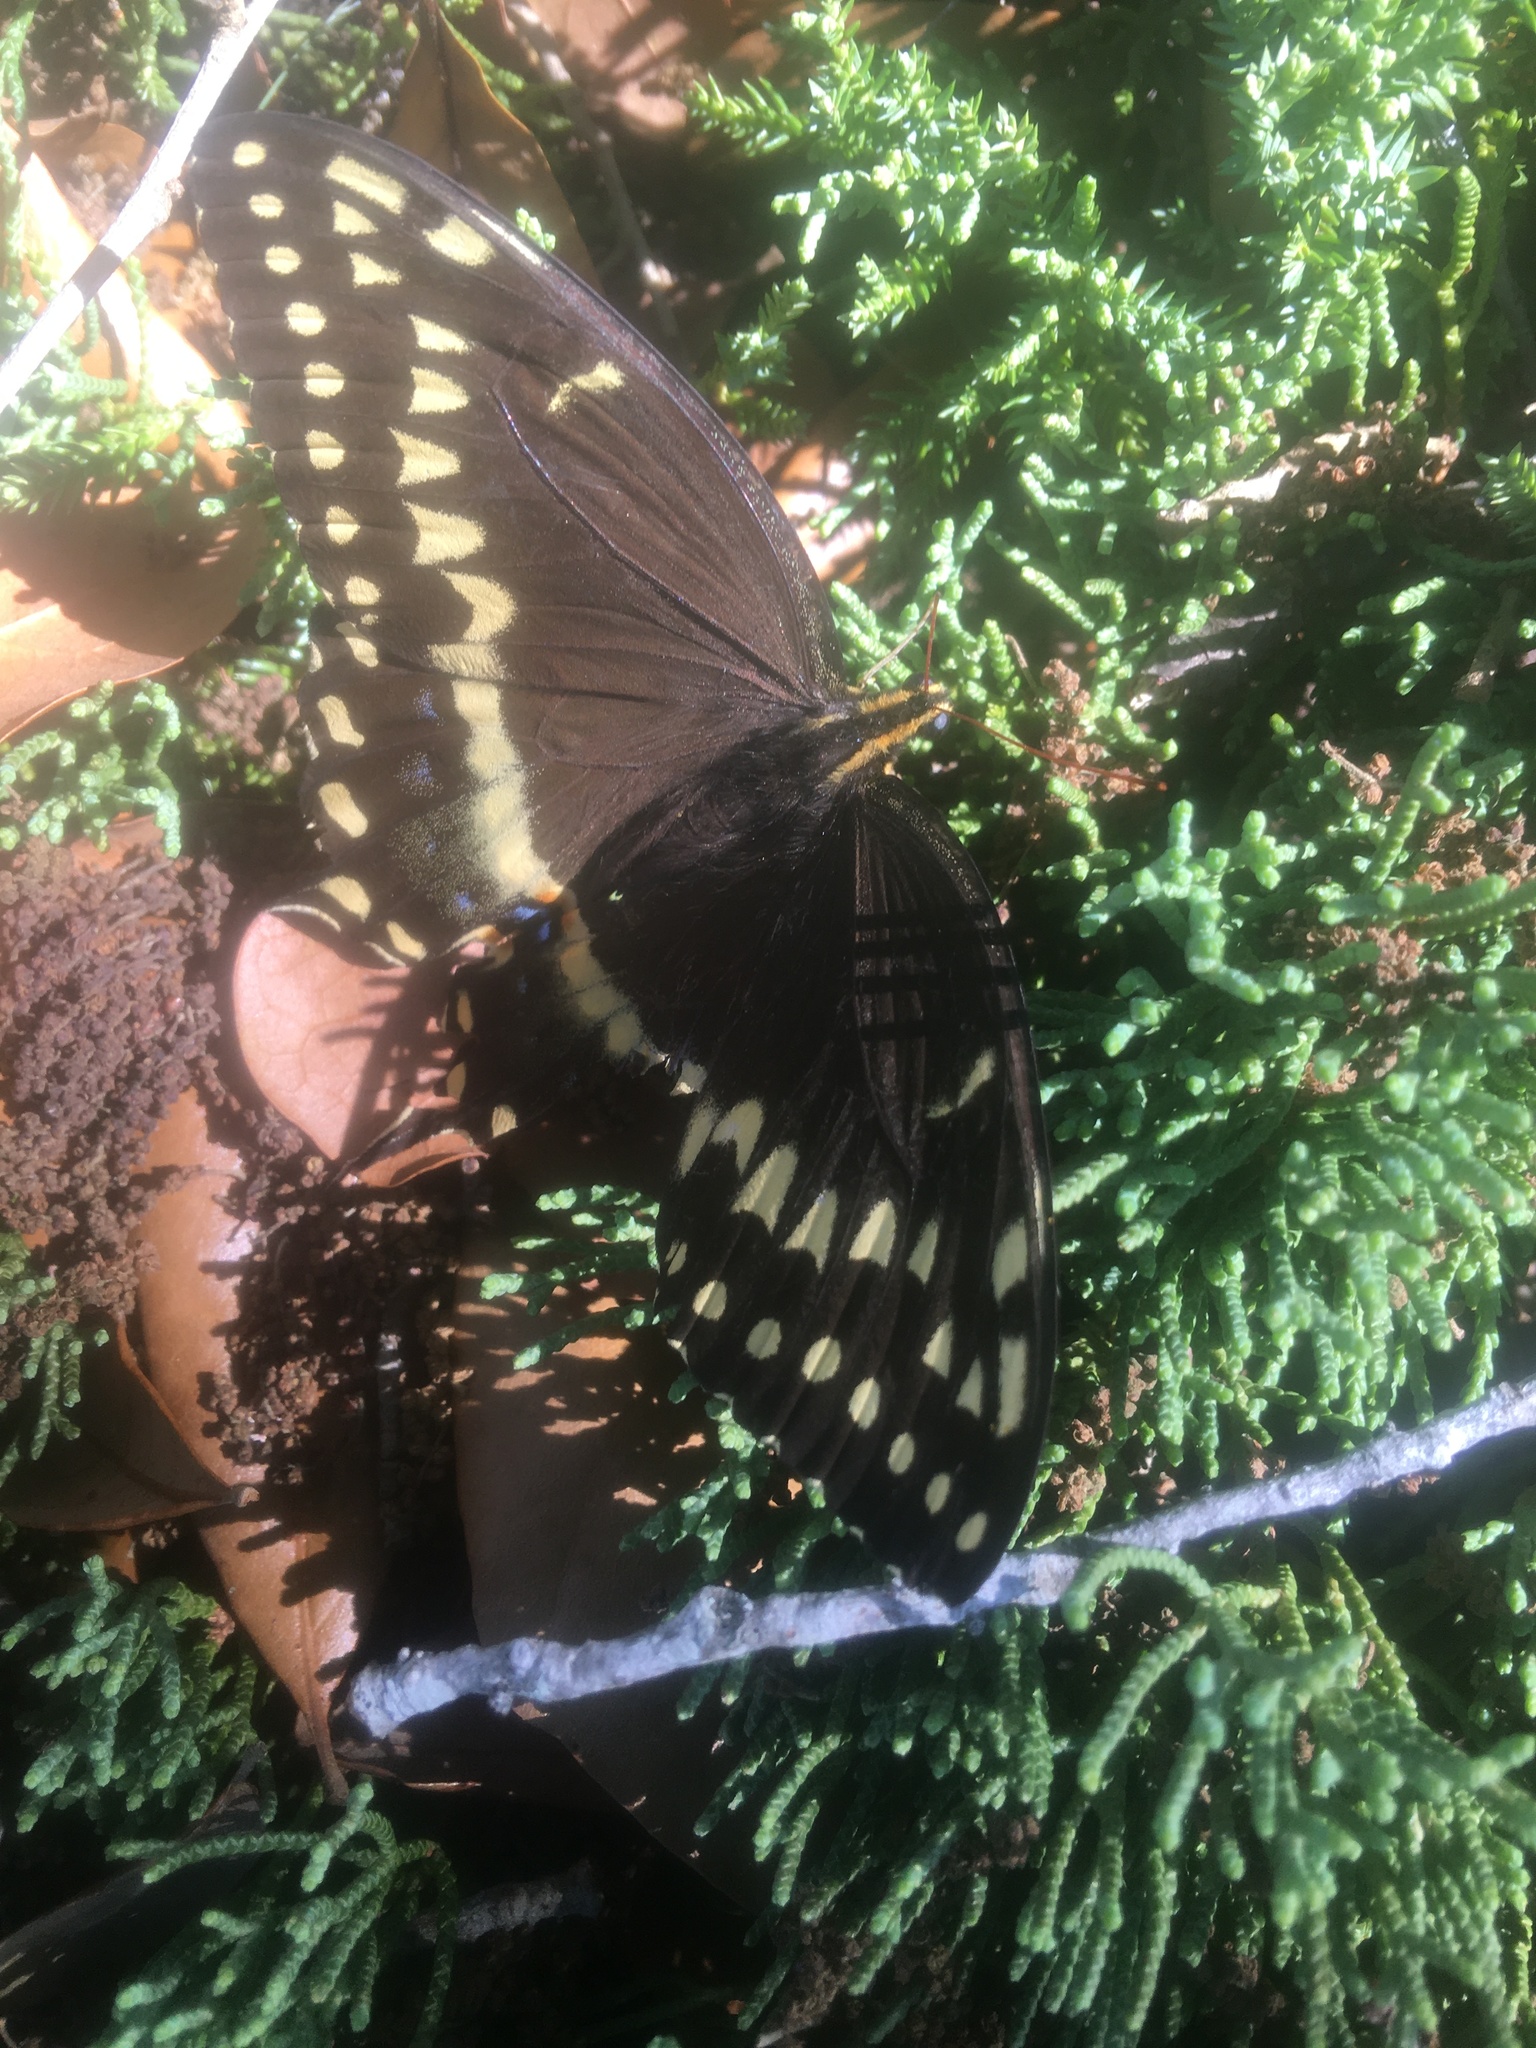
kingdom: Animalia
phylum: Arthropoda
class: Insecta
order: Lepidoptera
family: Papilionidae
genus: Papilio
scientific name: Papilio palamedes
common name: Palamedes swallowtail
